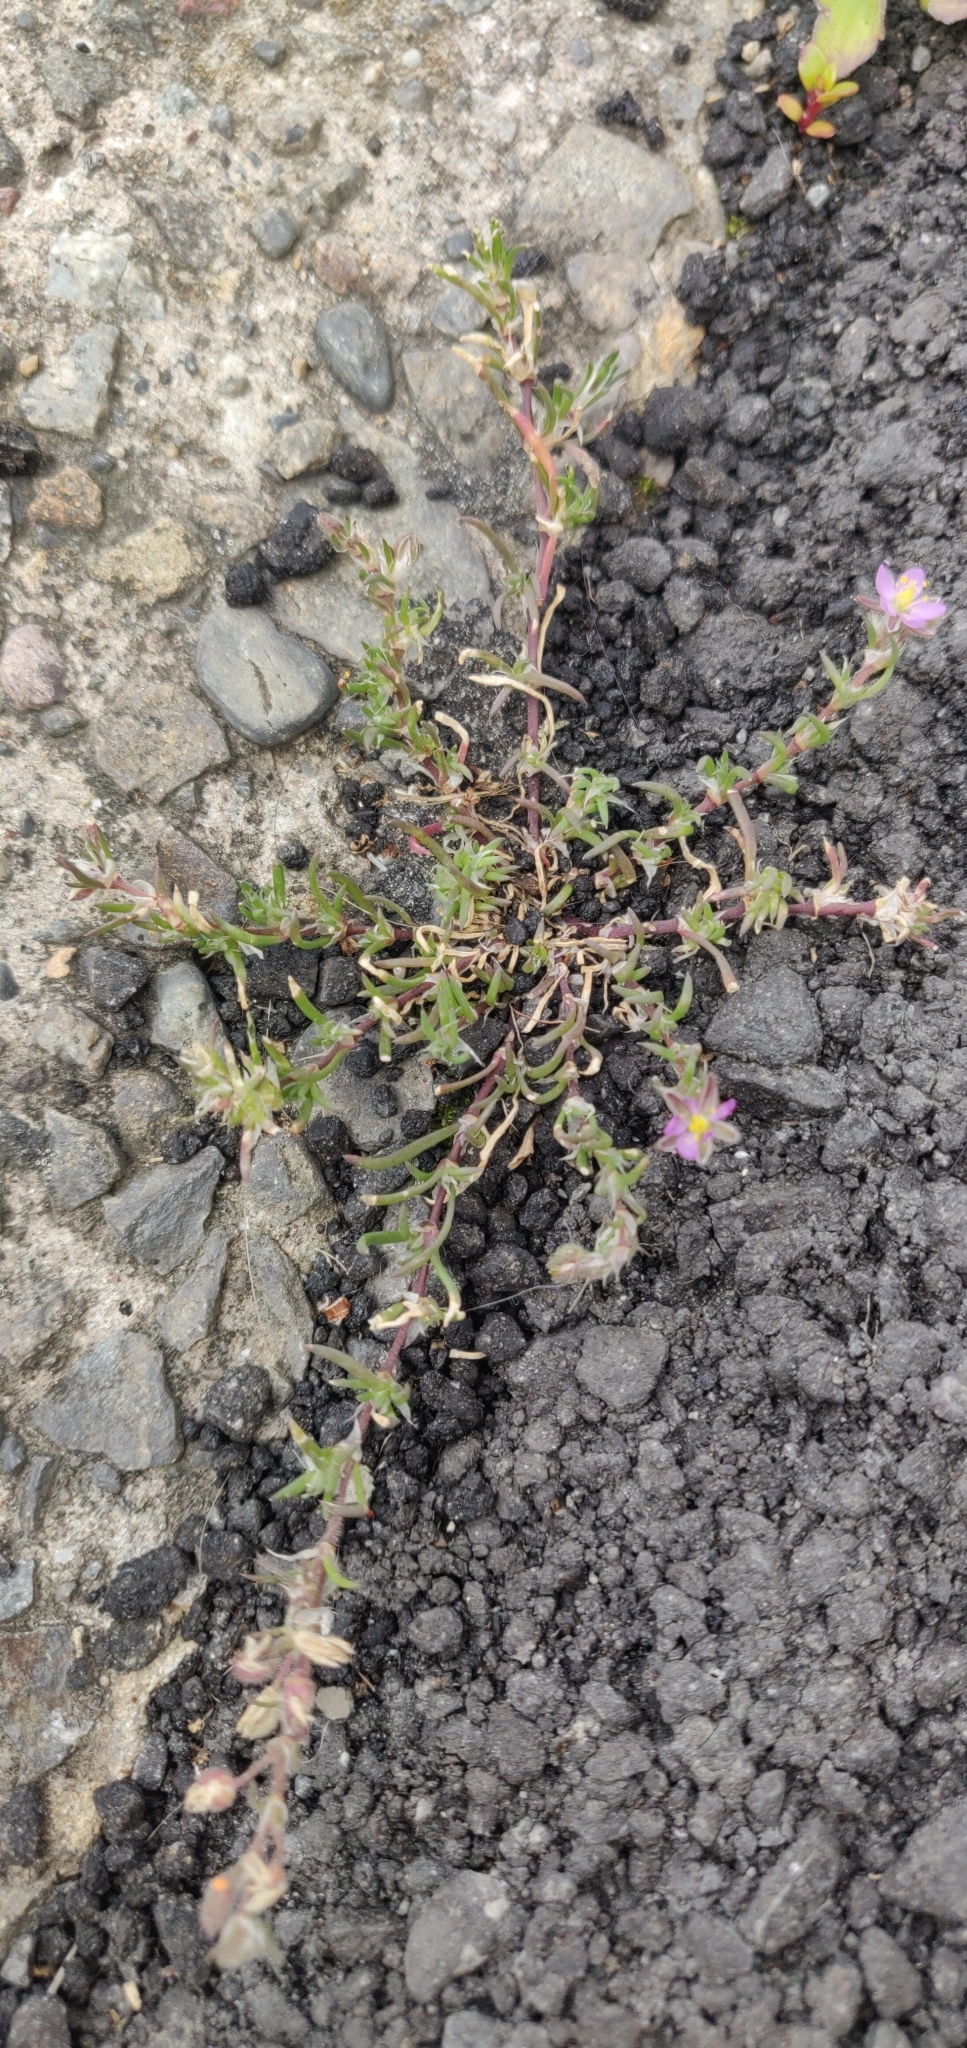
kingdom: Plantae
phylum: Tracheophyta
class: Magnoliopsida
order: Caryophyllales
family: Caryophyllaceae
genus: Spergularia
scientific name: Spergularia rubra
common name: Red sand-spurrey
